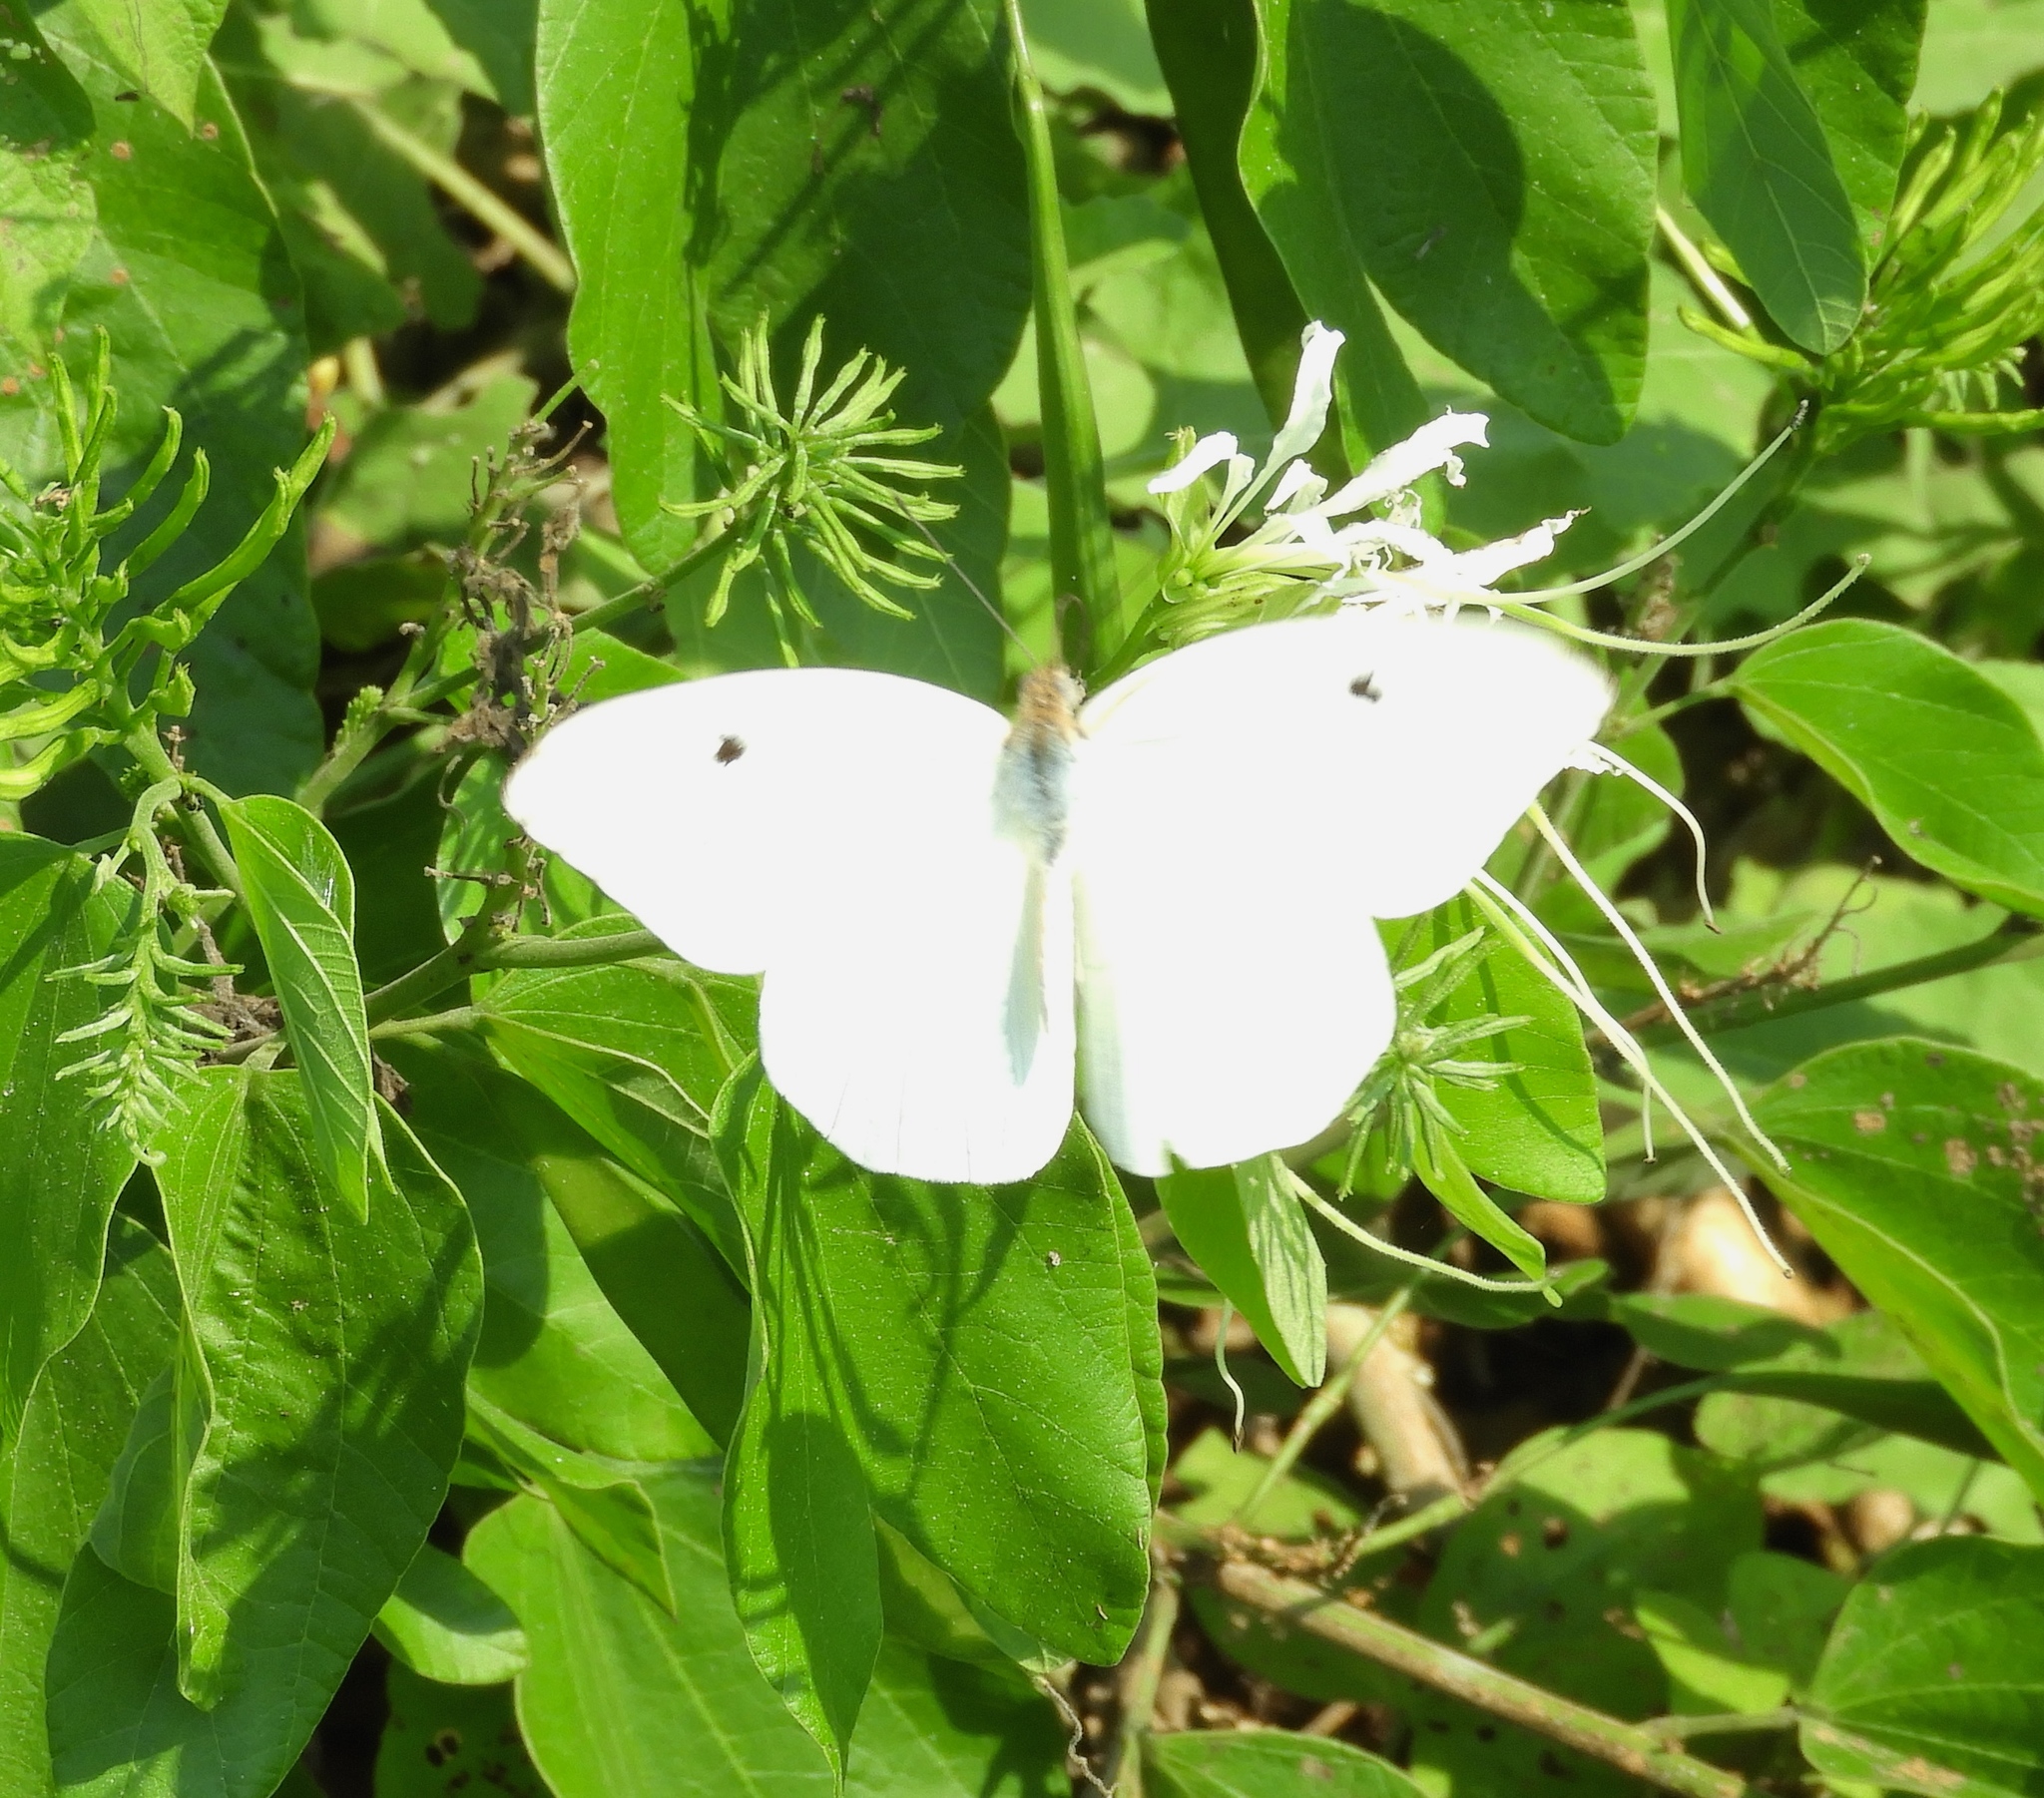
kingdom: Animalia
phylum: Arthropoda
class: Insecta
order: Lepidoptera
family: Pieridae
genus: Ganyra
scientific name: Ganyra josephina
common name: Giant white
